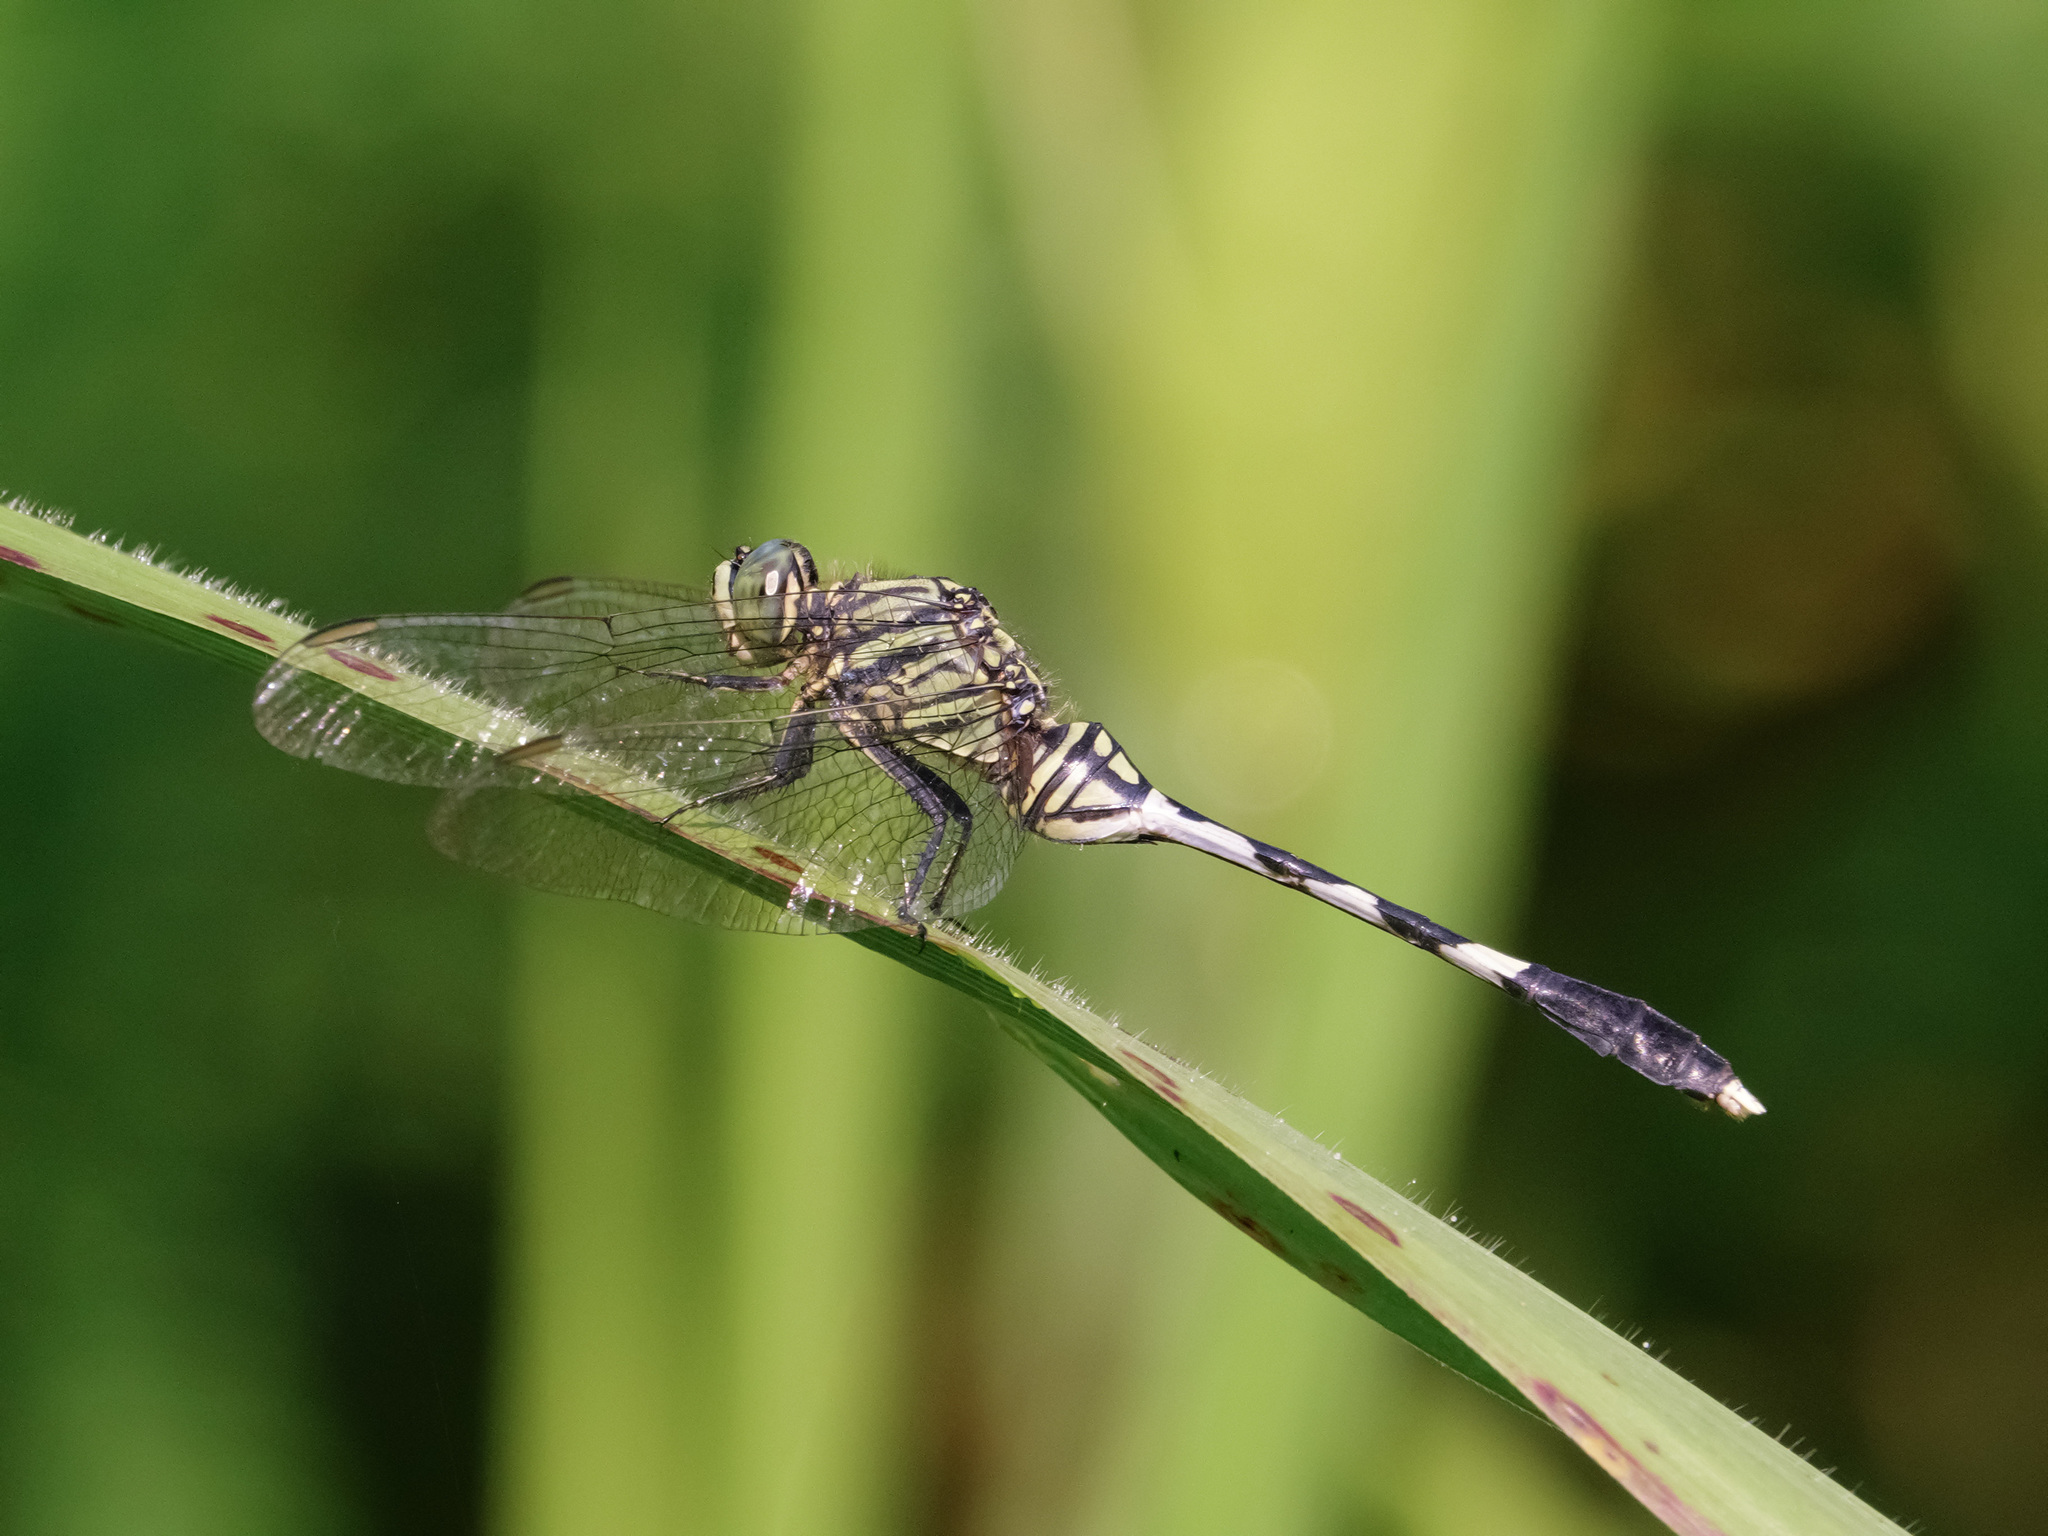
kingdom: Animalia
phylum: Arthropoda
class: Insecta
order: Odonata
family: Libellulidae
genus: Orthetrum
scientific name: Orthetrum sabina
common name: Slender skimmer
